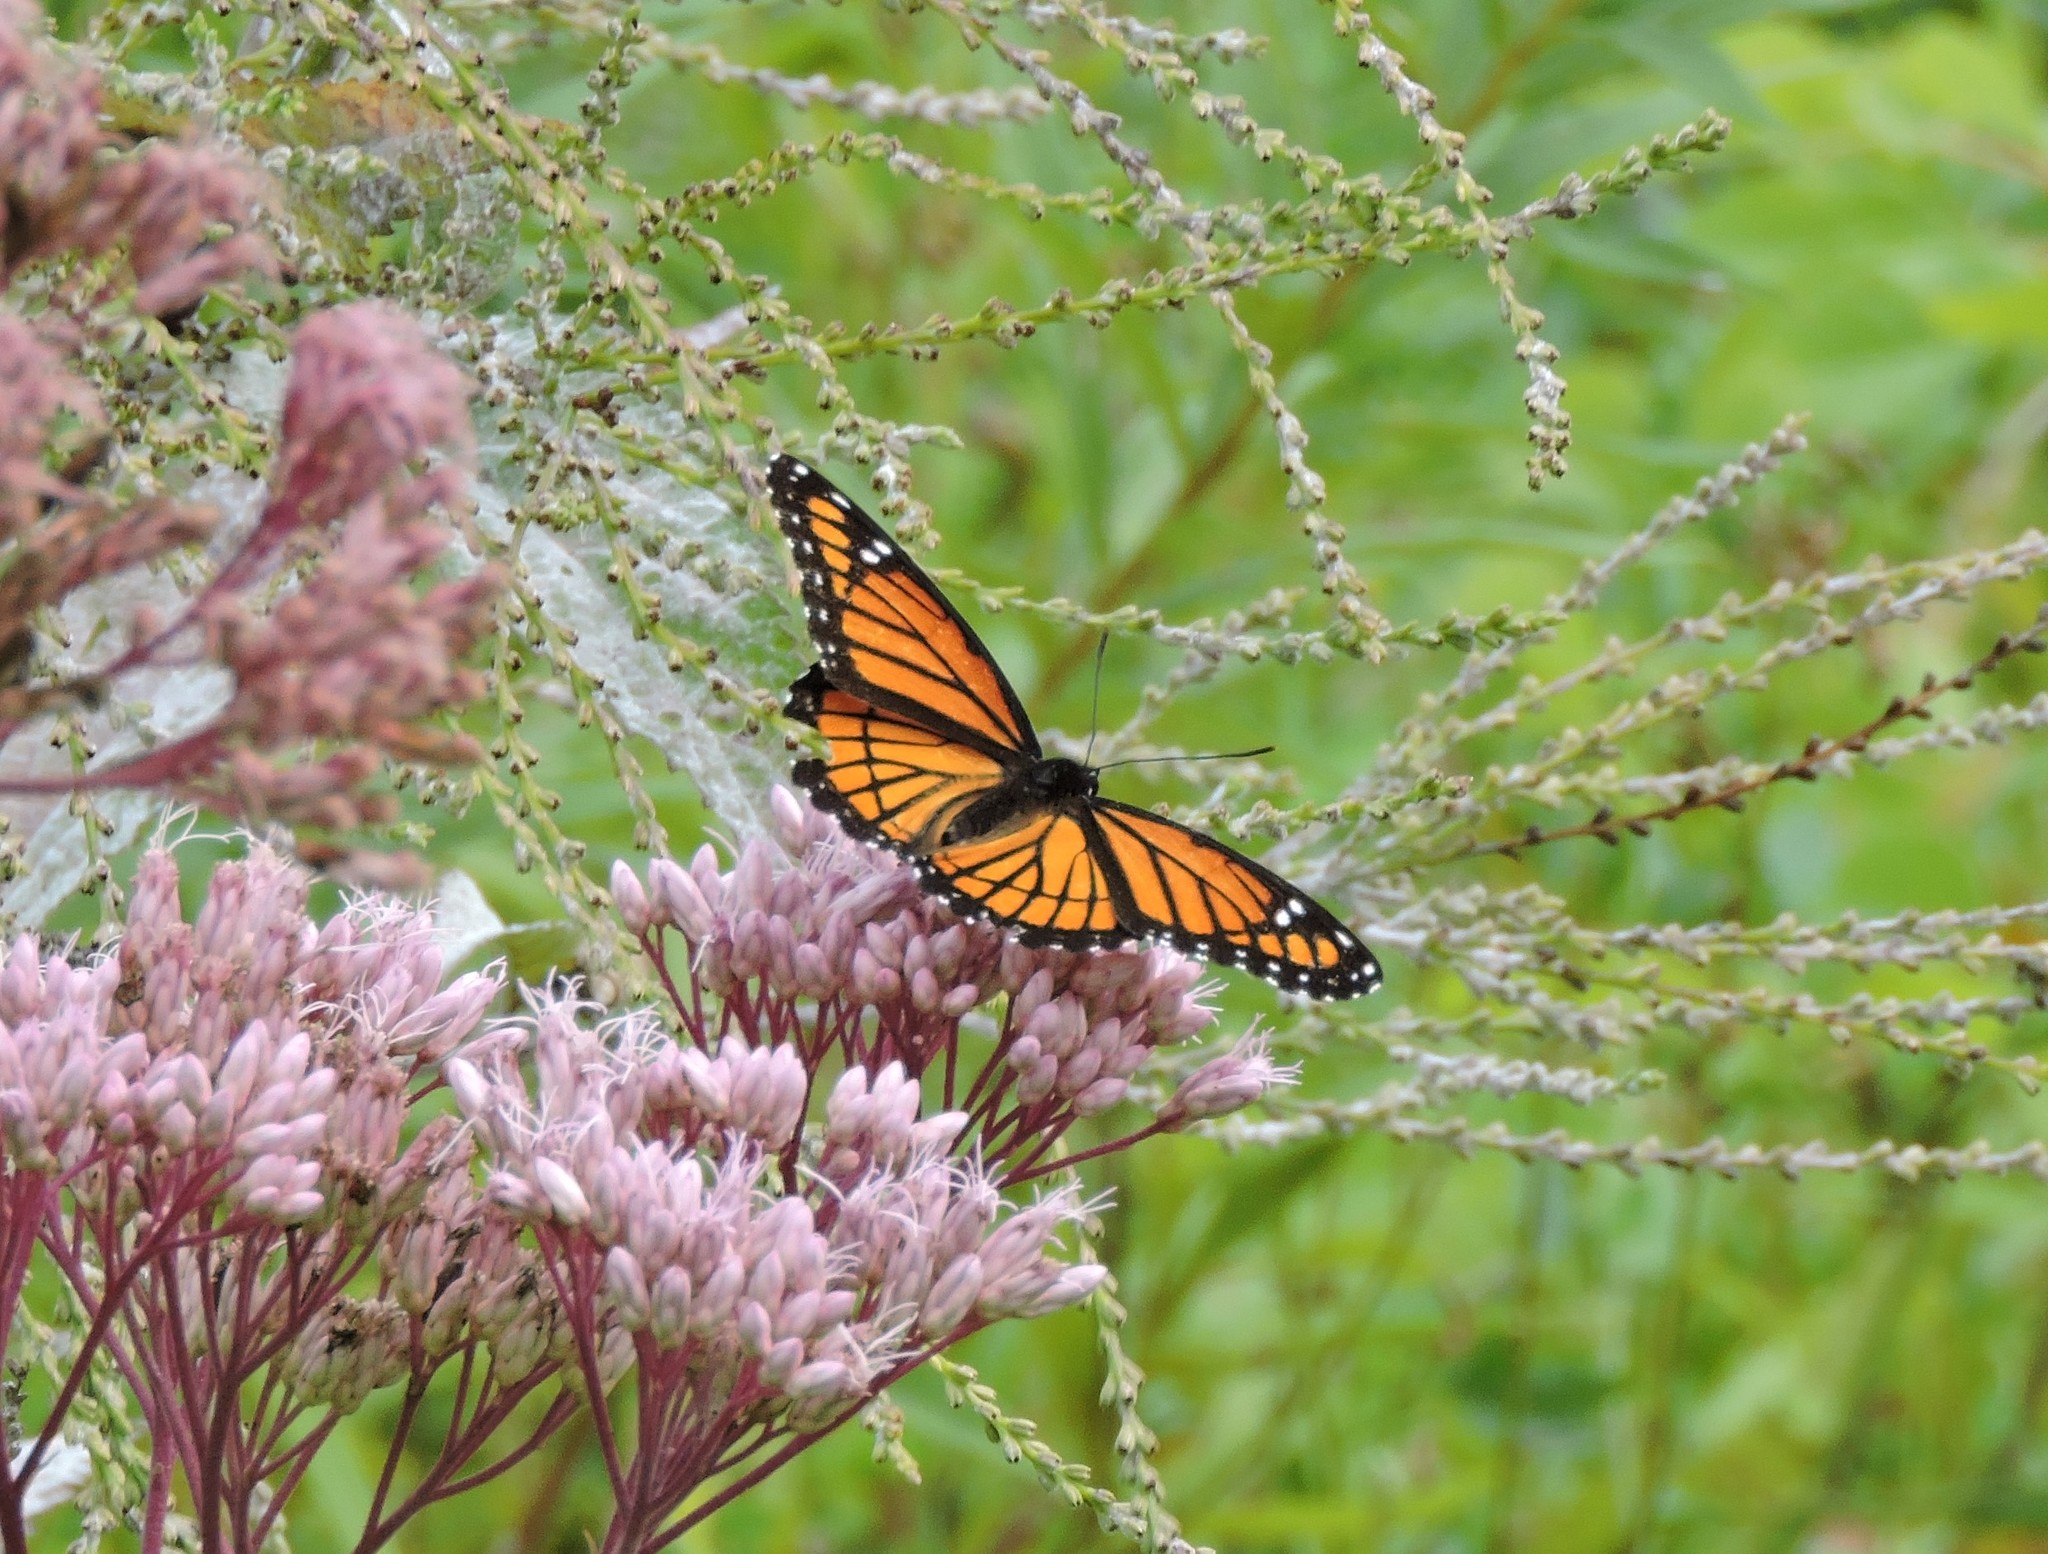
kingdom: Animalia
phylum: Arthropoda
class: Insecta
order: Lepidoptera
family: Nymphalidae
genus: Limenitis
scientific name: Limenitis archippus
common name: Viceroy
